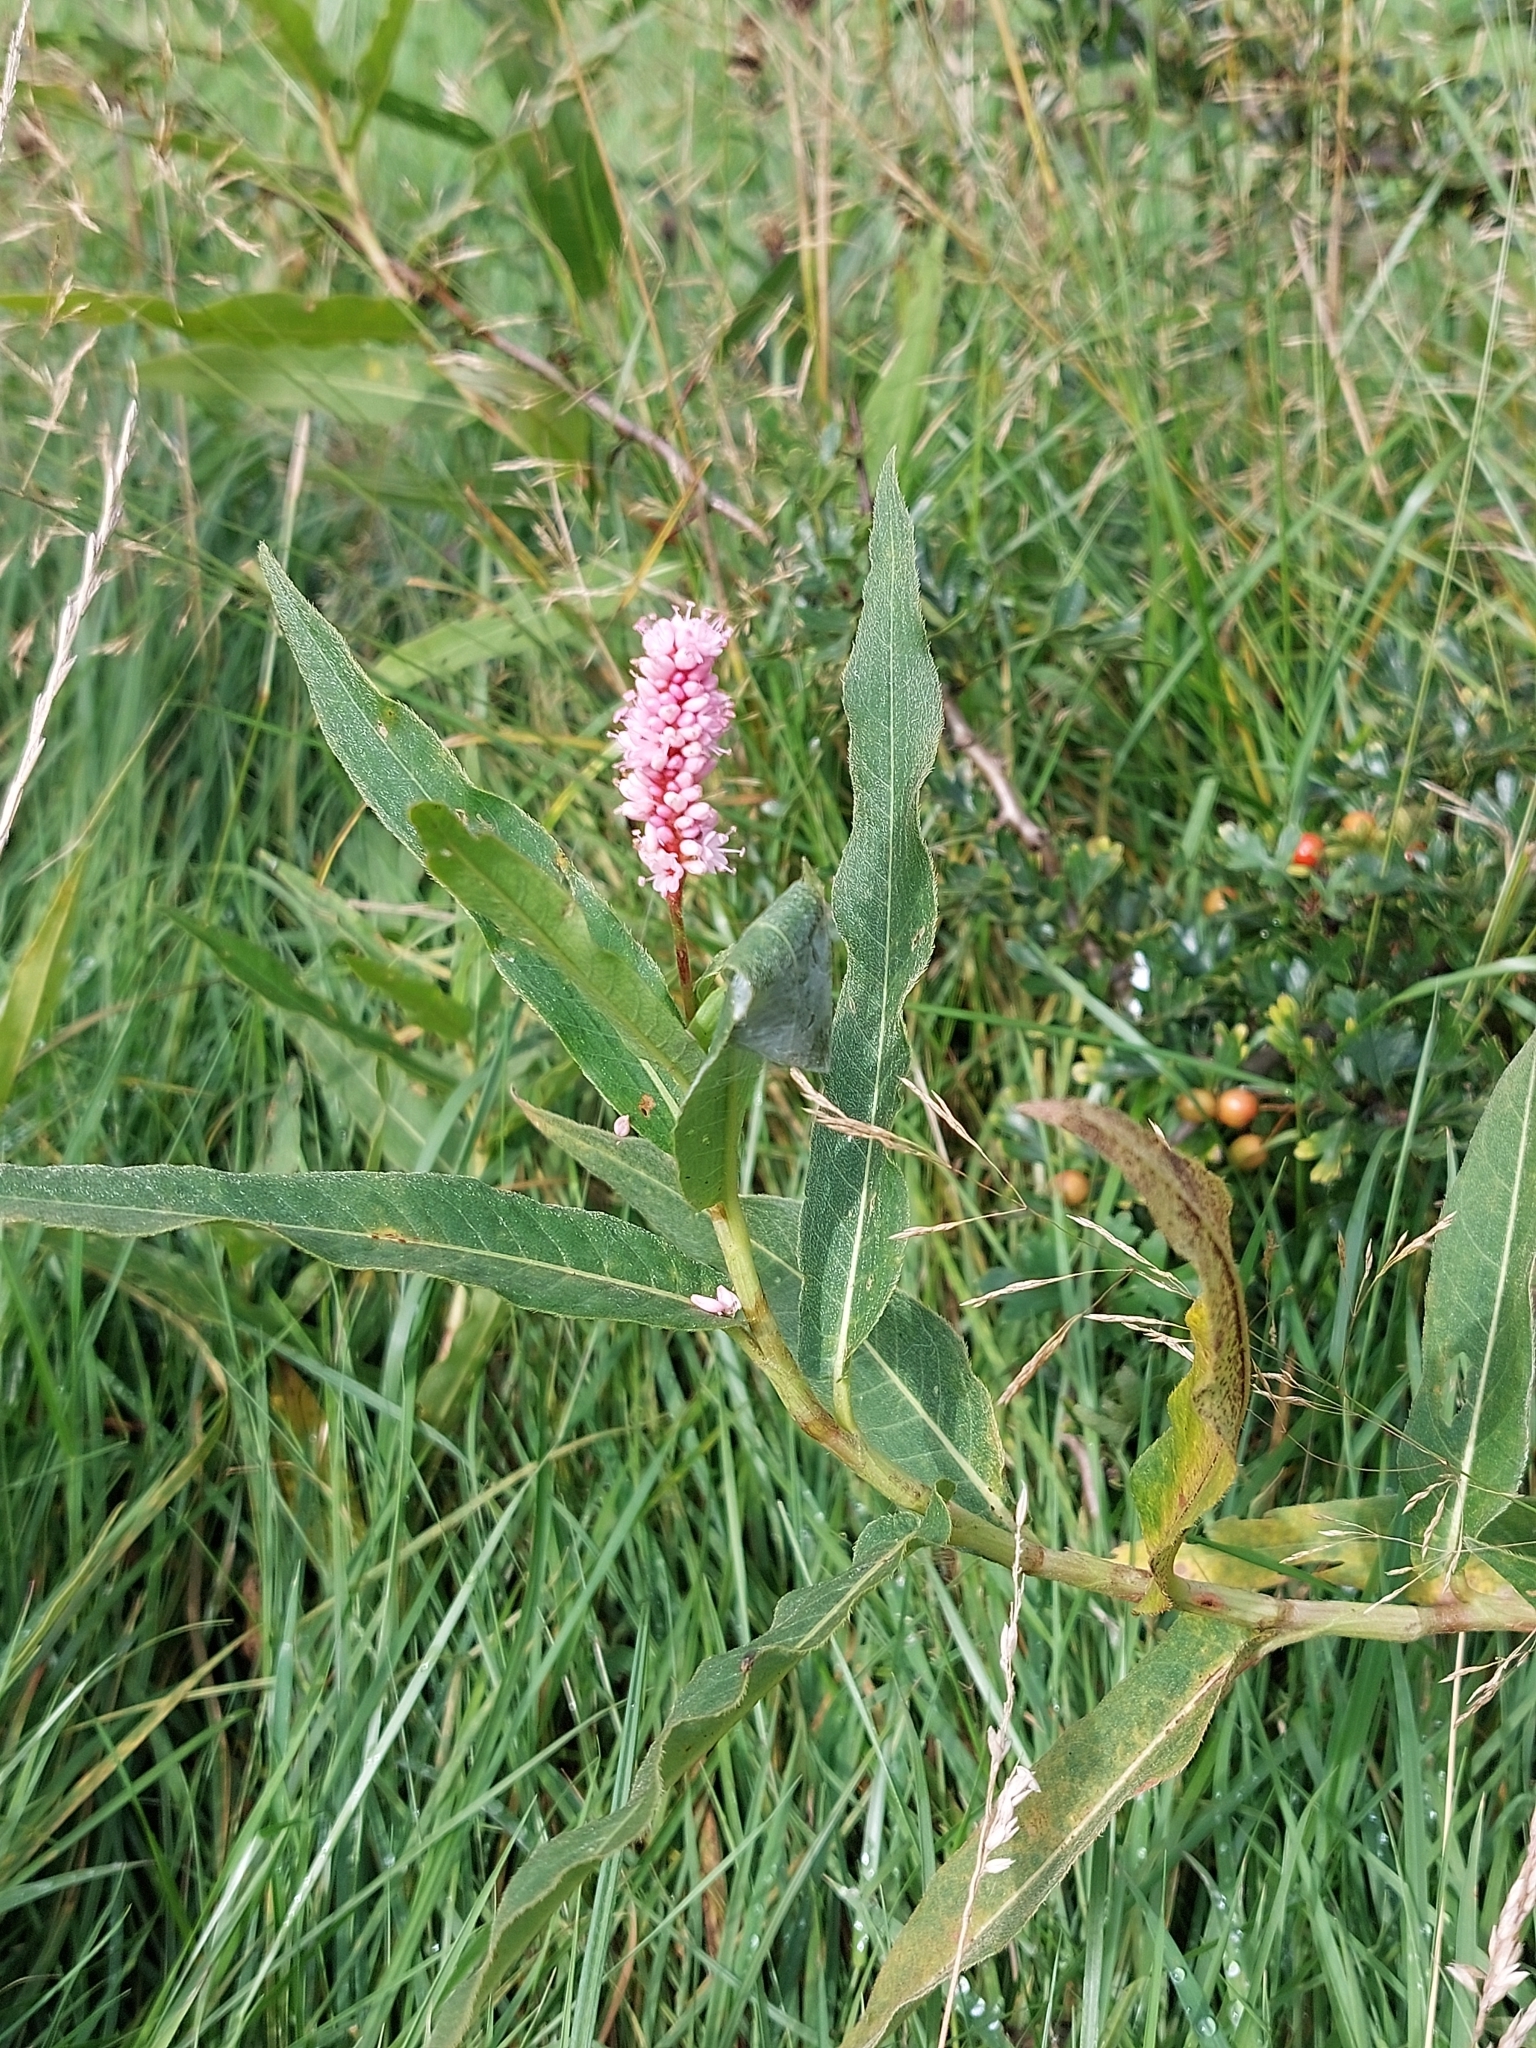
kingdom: Plantae
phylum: Tracheophyta
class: Magnoliopsida
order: Caryophyllales
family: Polygonaceae
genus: Persicaria
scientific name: Persicaria amphibia
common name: Amphibious bistort
